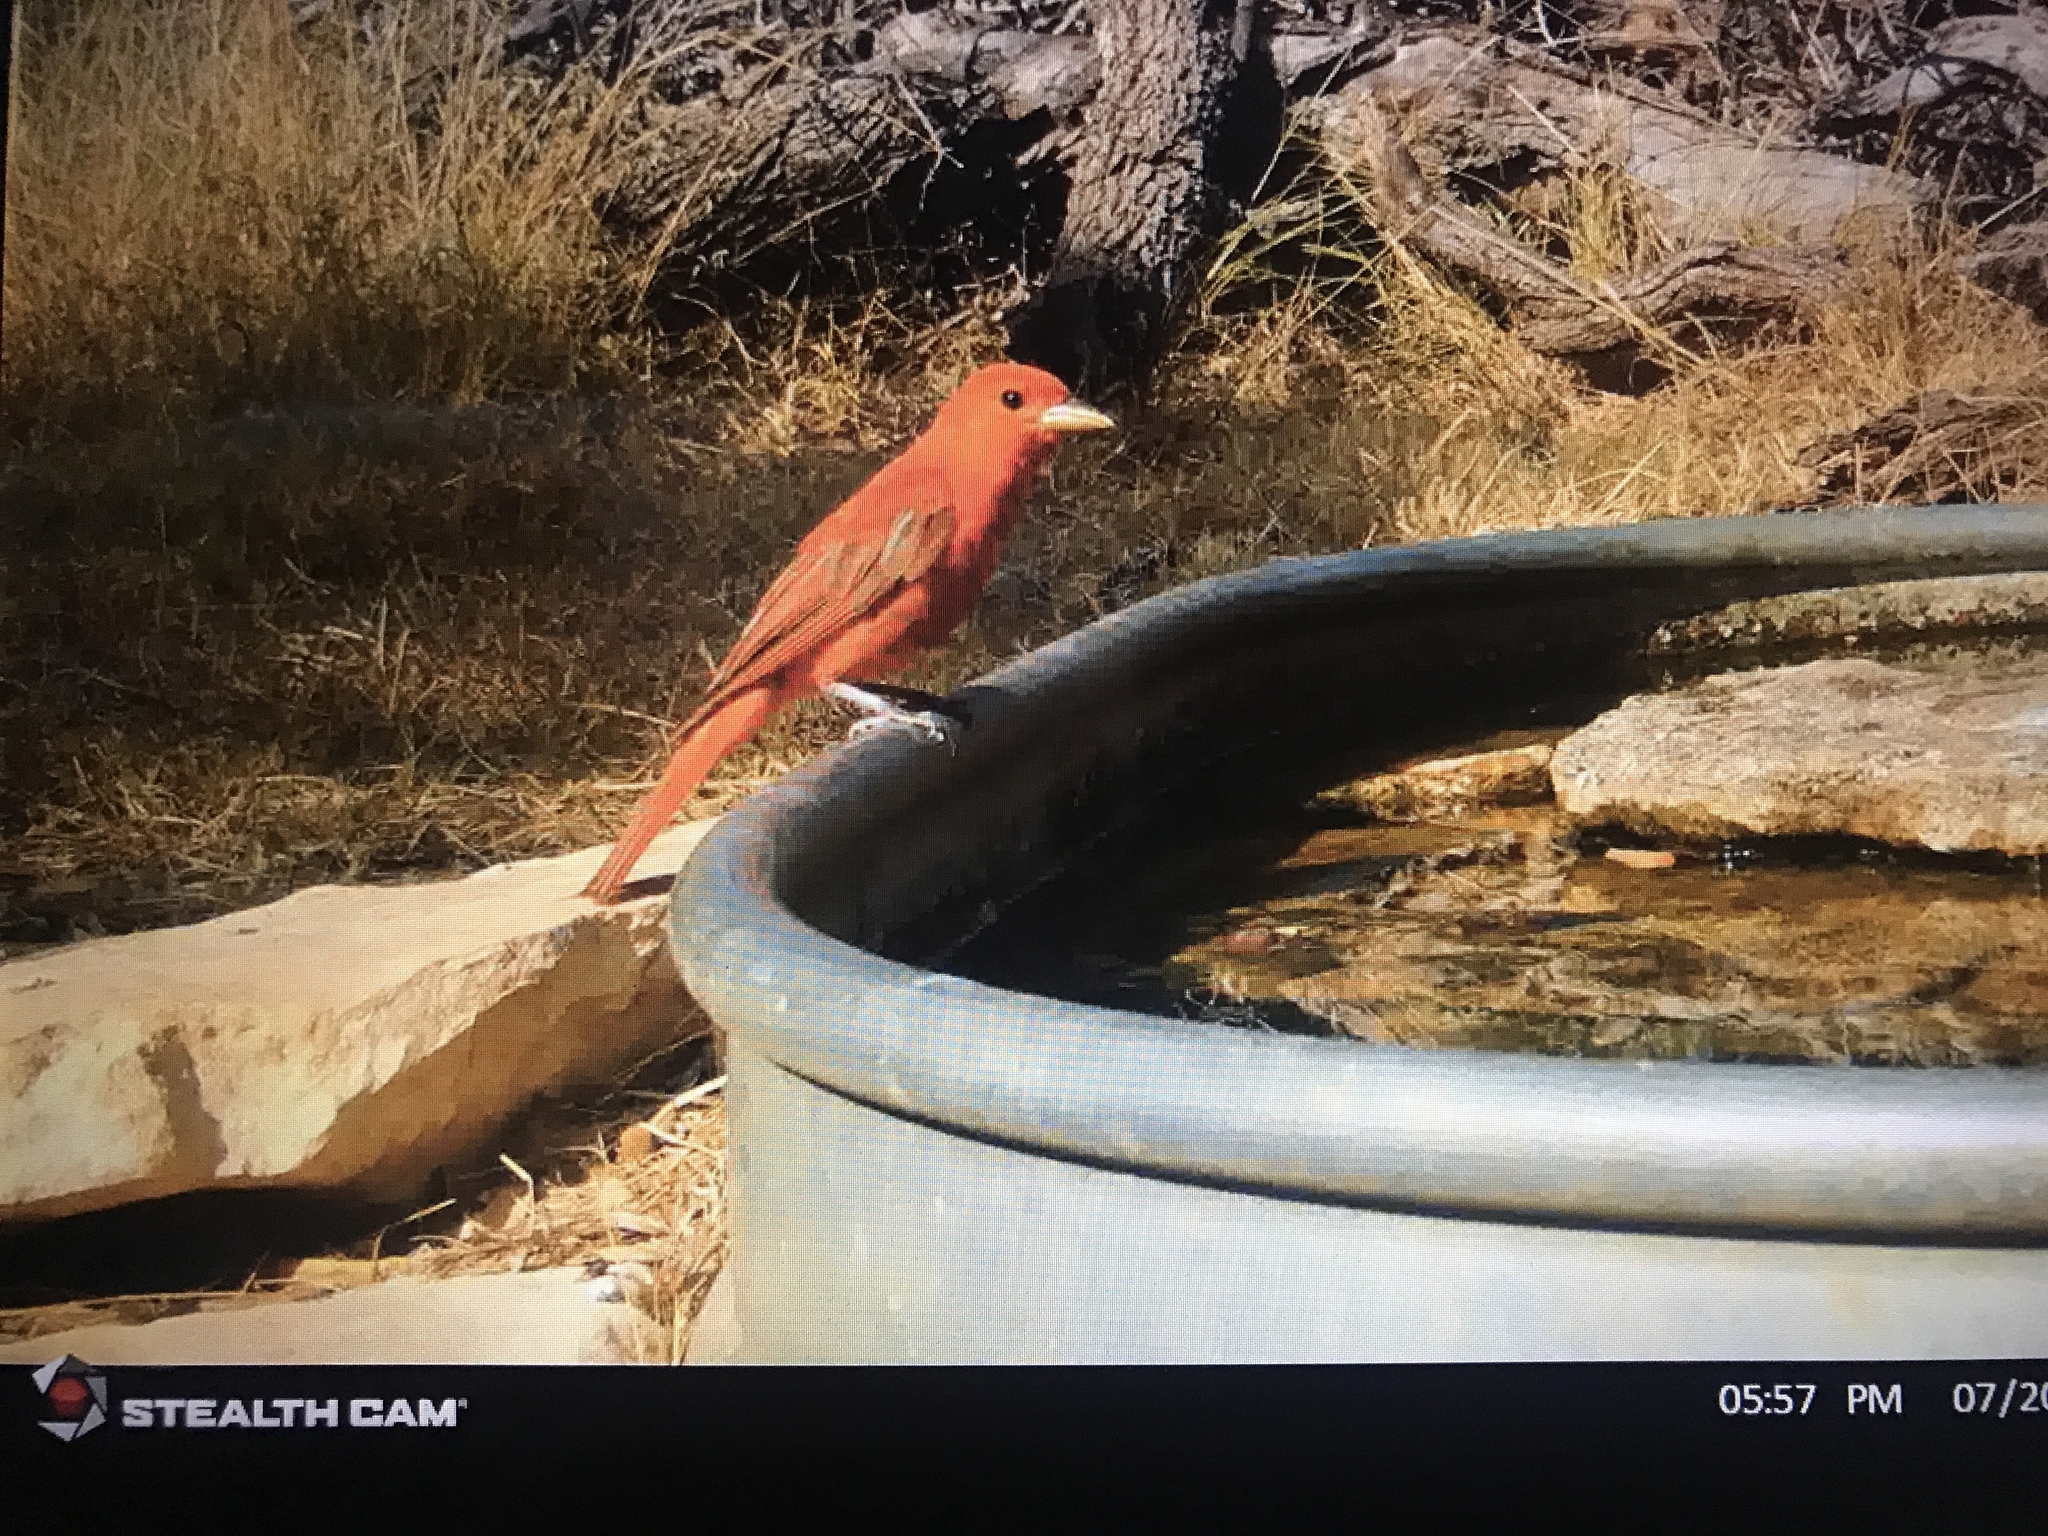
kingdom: Animalia
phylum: Chordata
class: Aves
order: Passeriformes
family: Cardinalidae
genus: Piranga
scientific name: Piranga rubra
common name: Summer tanager
